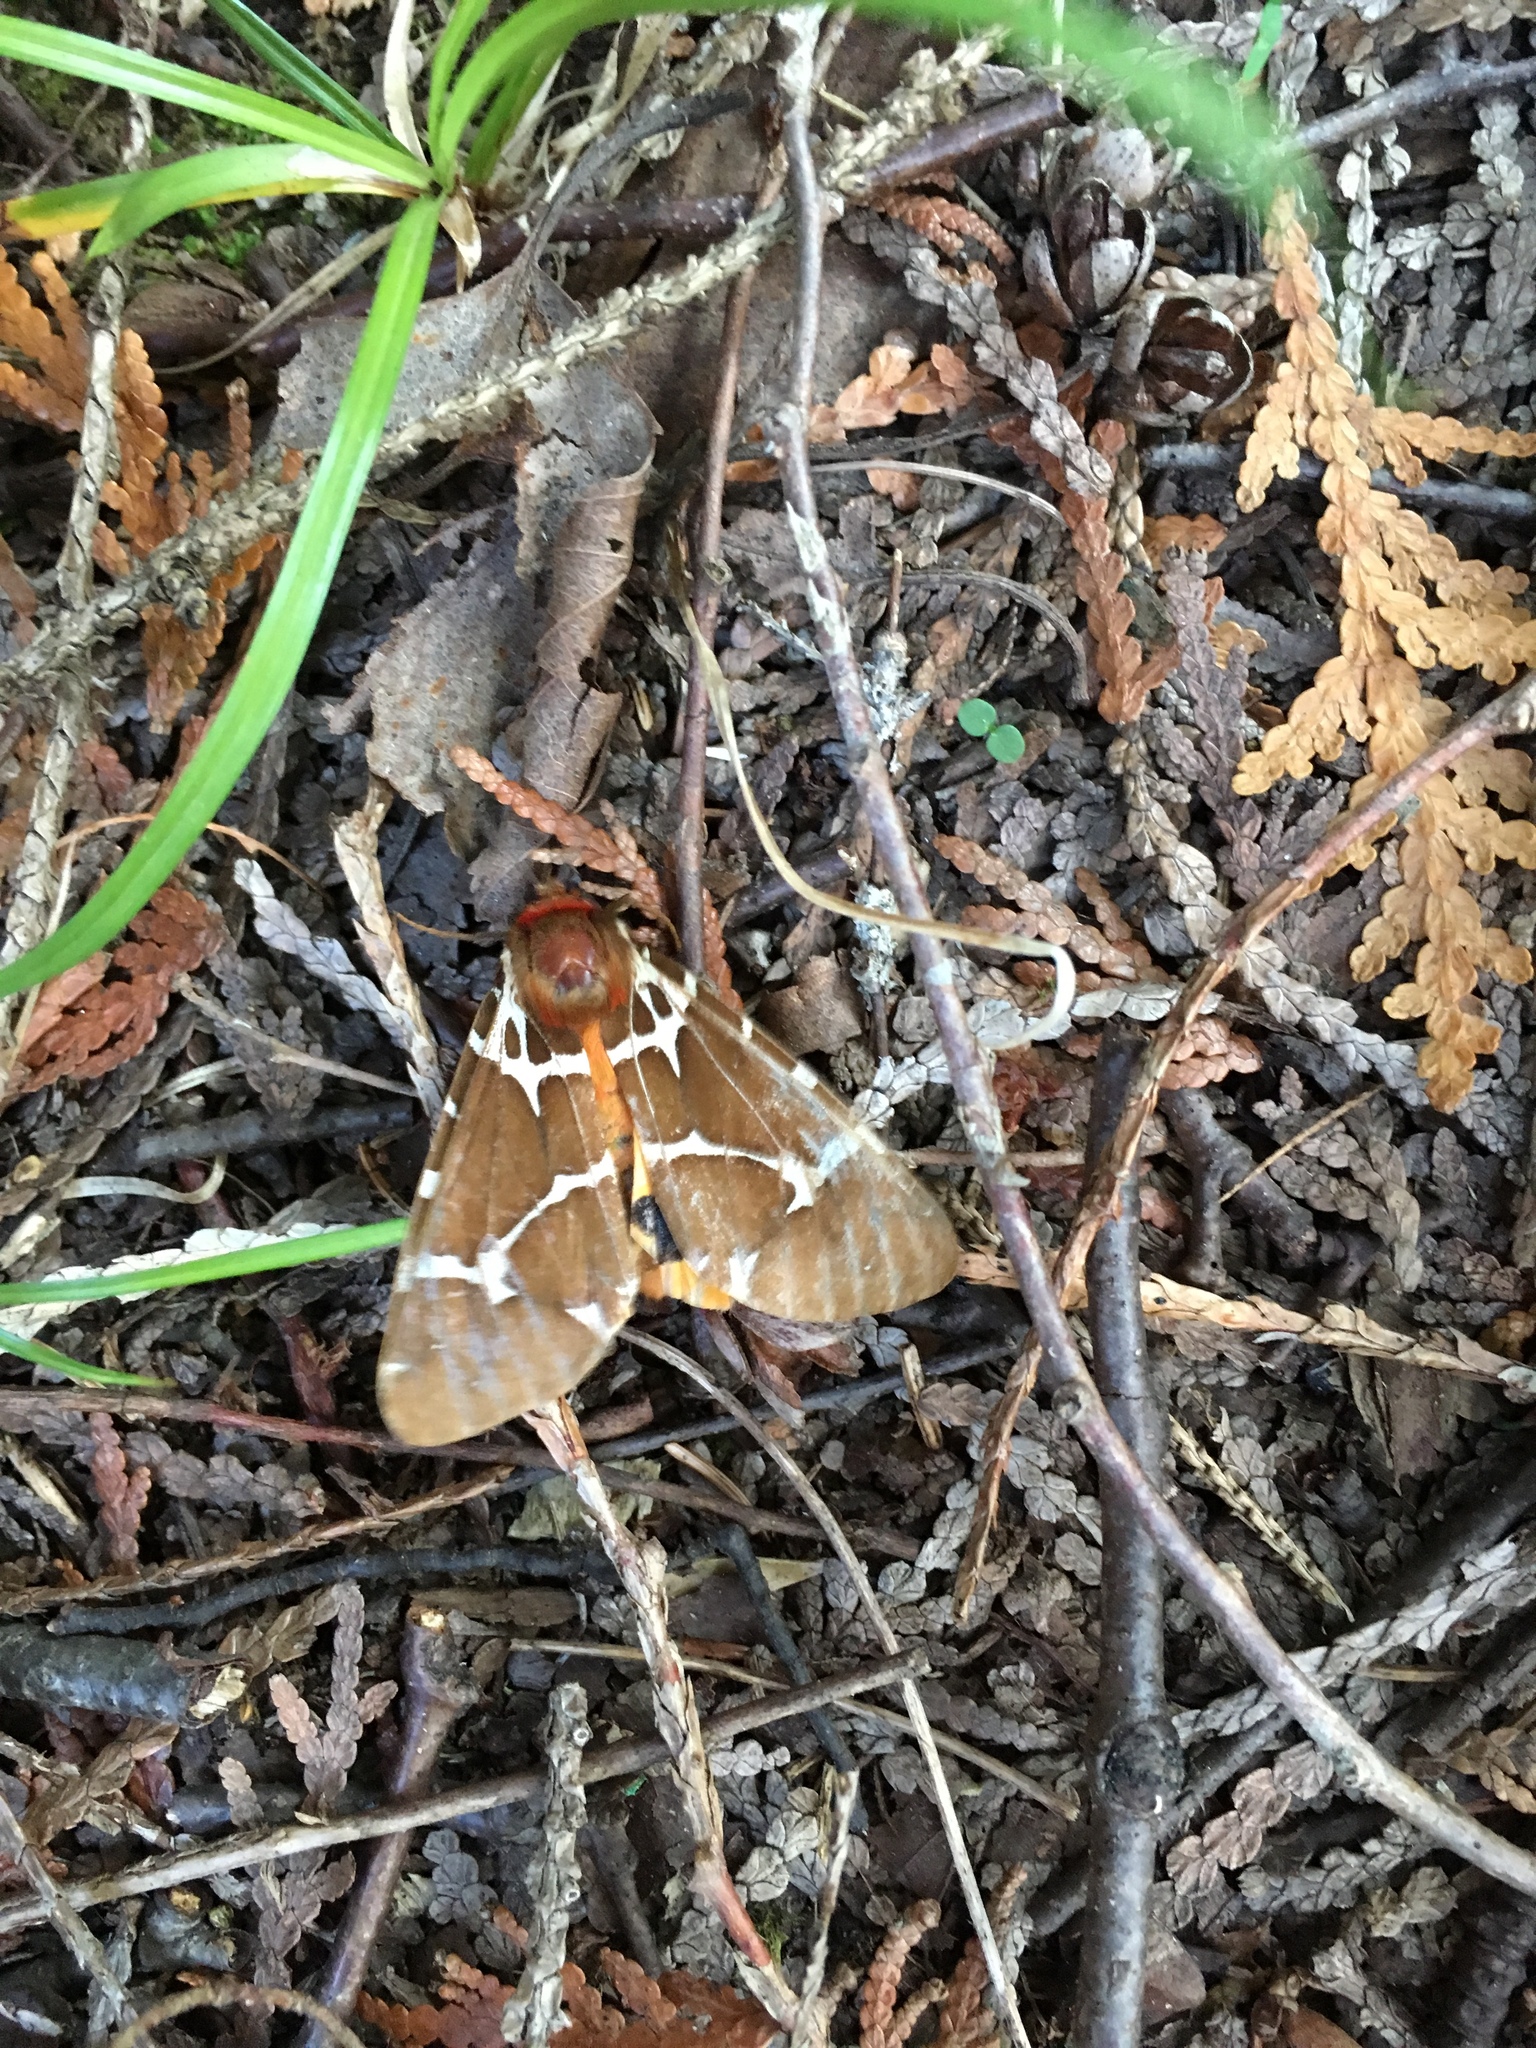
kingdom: Animalia
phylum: Arthropoda
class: Insecta
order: Lepidoptera
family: Erebidae
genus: Arctia
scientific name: Arctia caja
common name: Garden tiger
